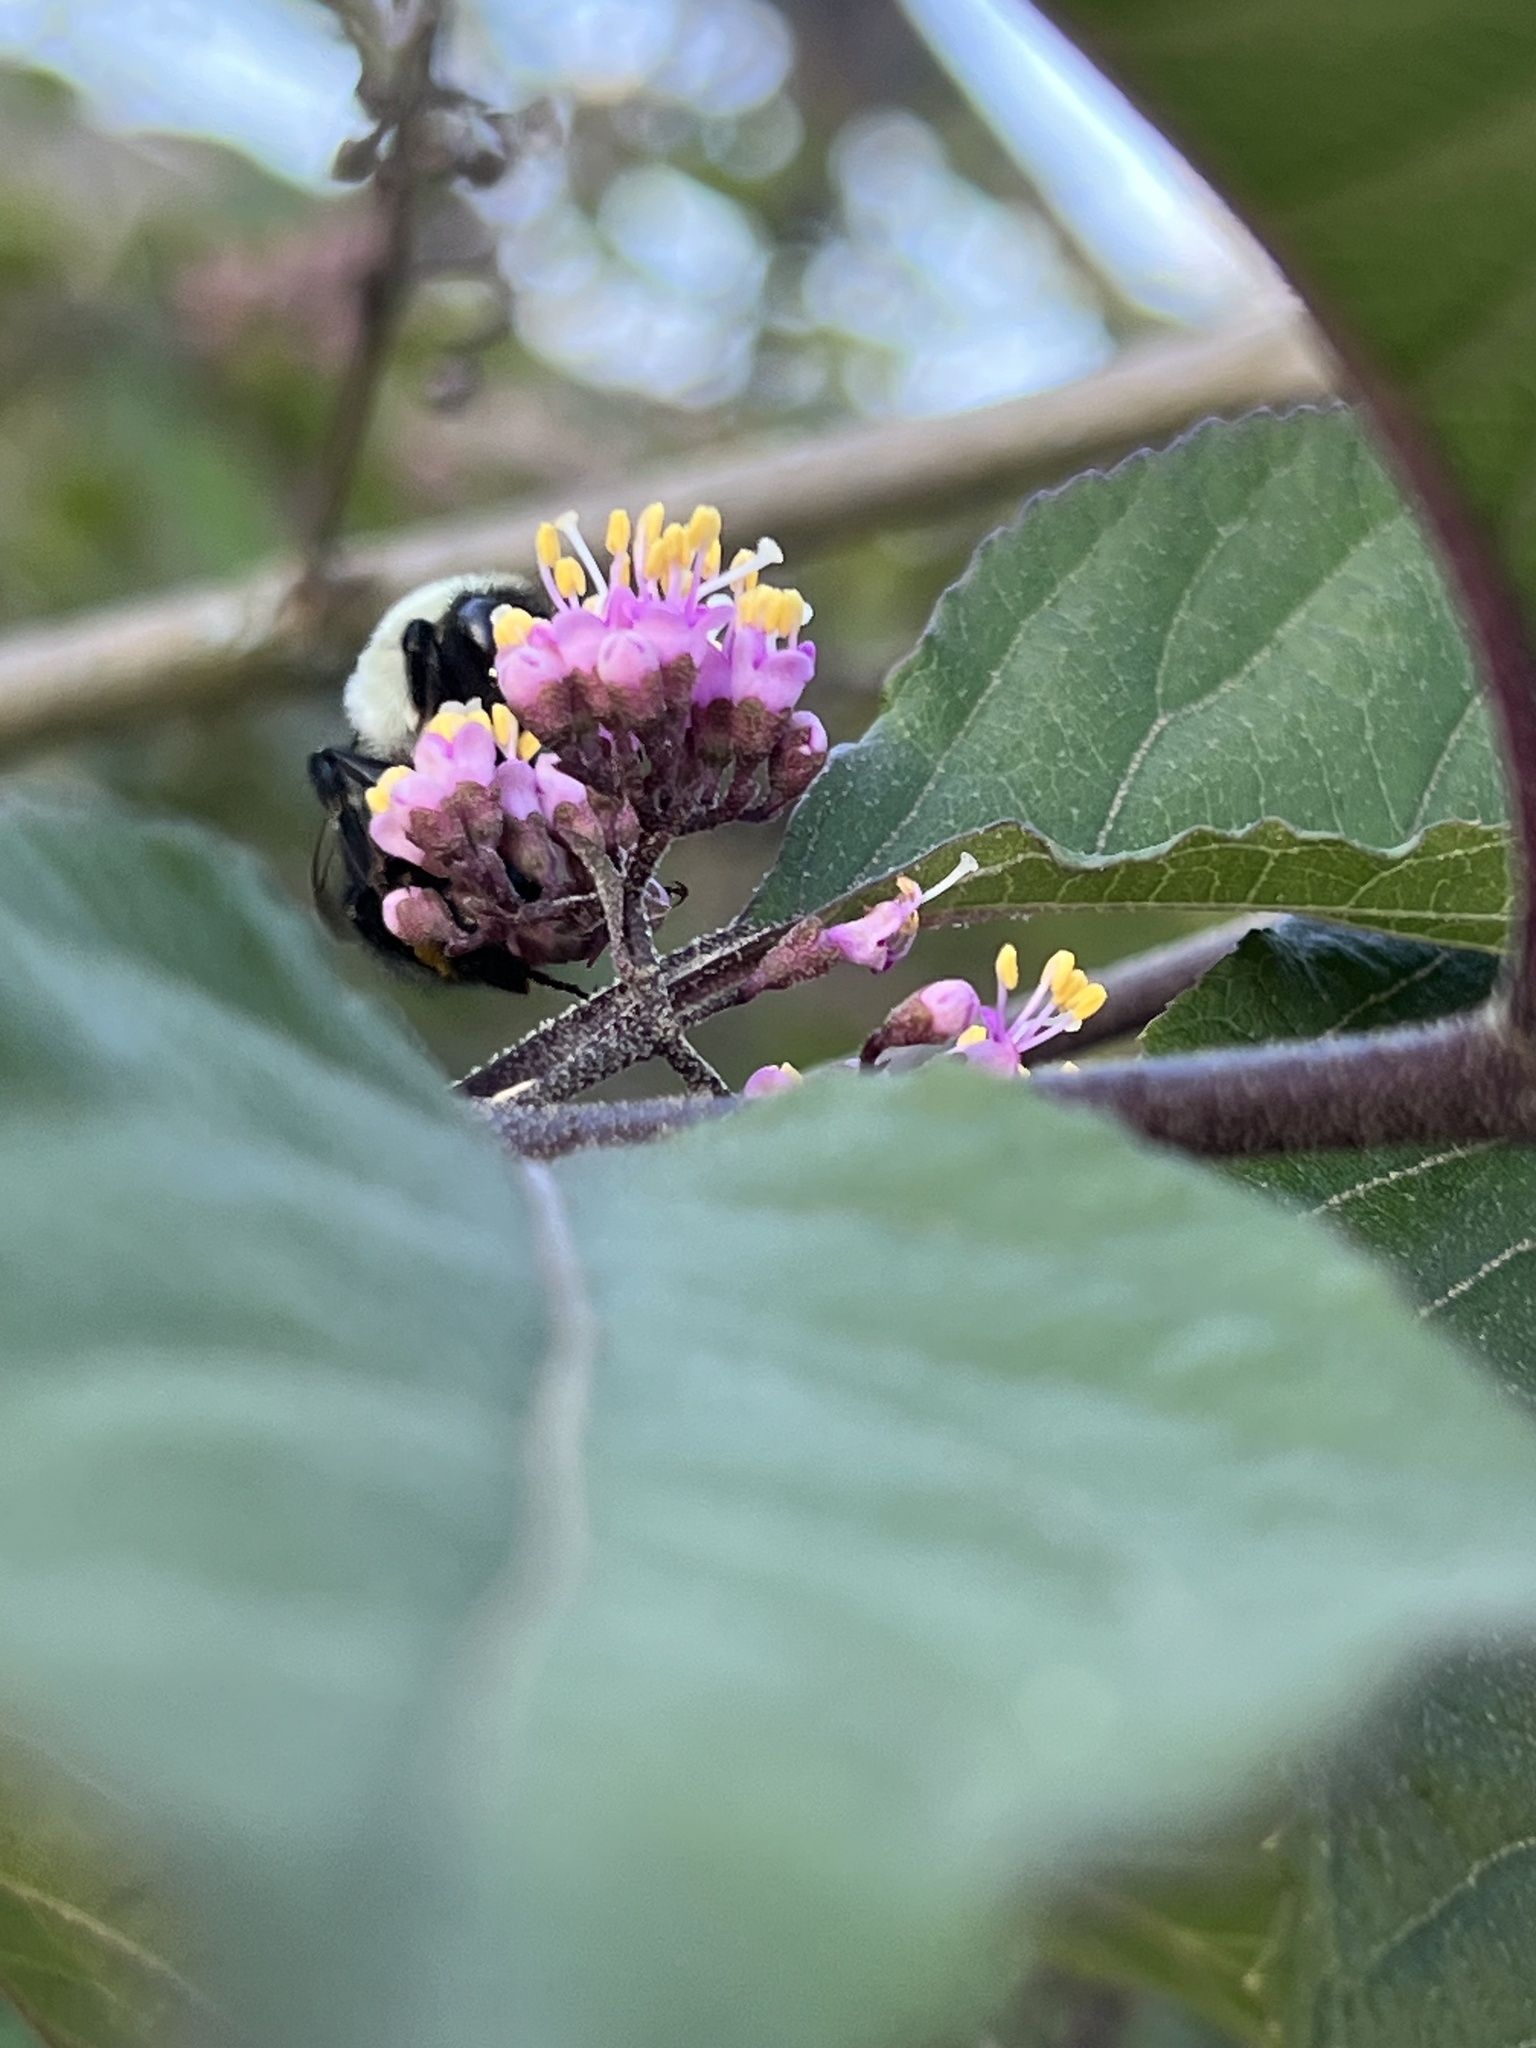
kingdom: Animalia
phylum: Arthropoda
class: Insecta
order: Hymenoptera
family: Apidae
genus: Bombus
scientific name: Bombus impatiens
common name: Common eastern bumble bee
